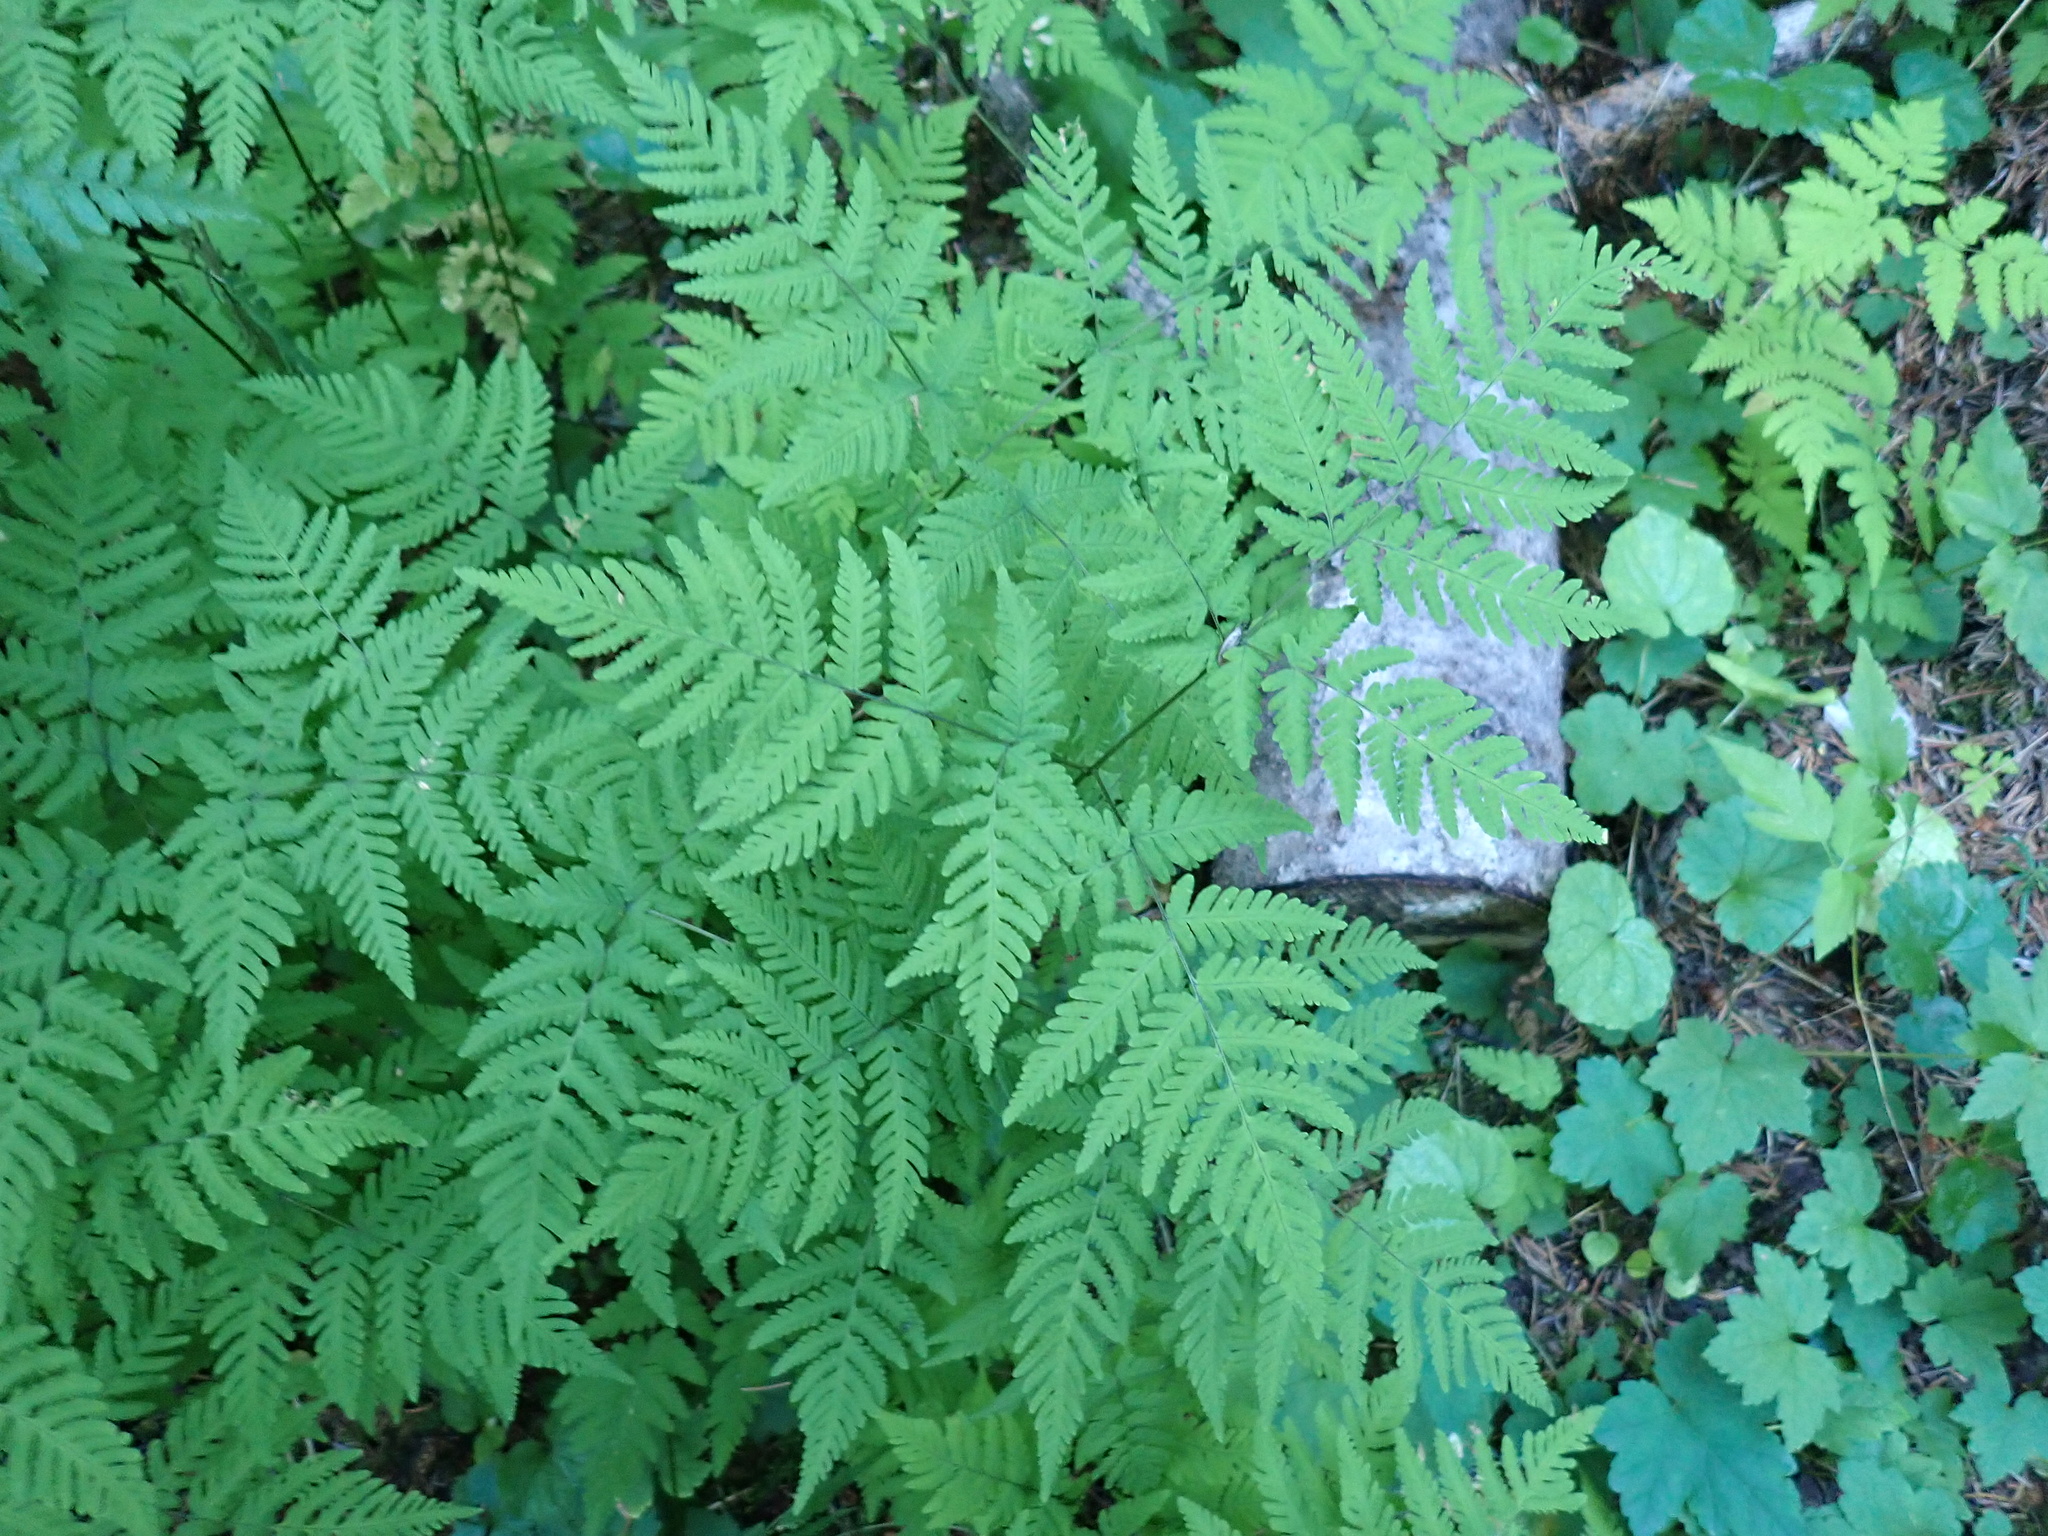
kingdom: Plantae
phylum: Tracheophyta
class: Polypodiopsida
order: Polypodiales
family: Cystopteridaceae
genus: Gymnocarpium
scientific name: Gymnocarpium disjunctum
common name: Western oak fern
